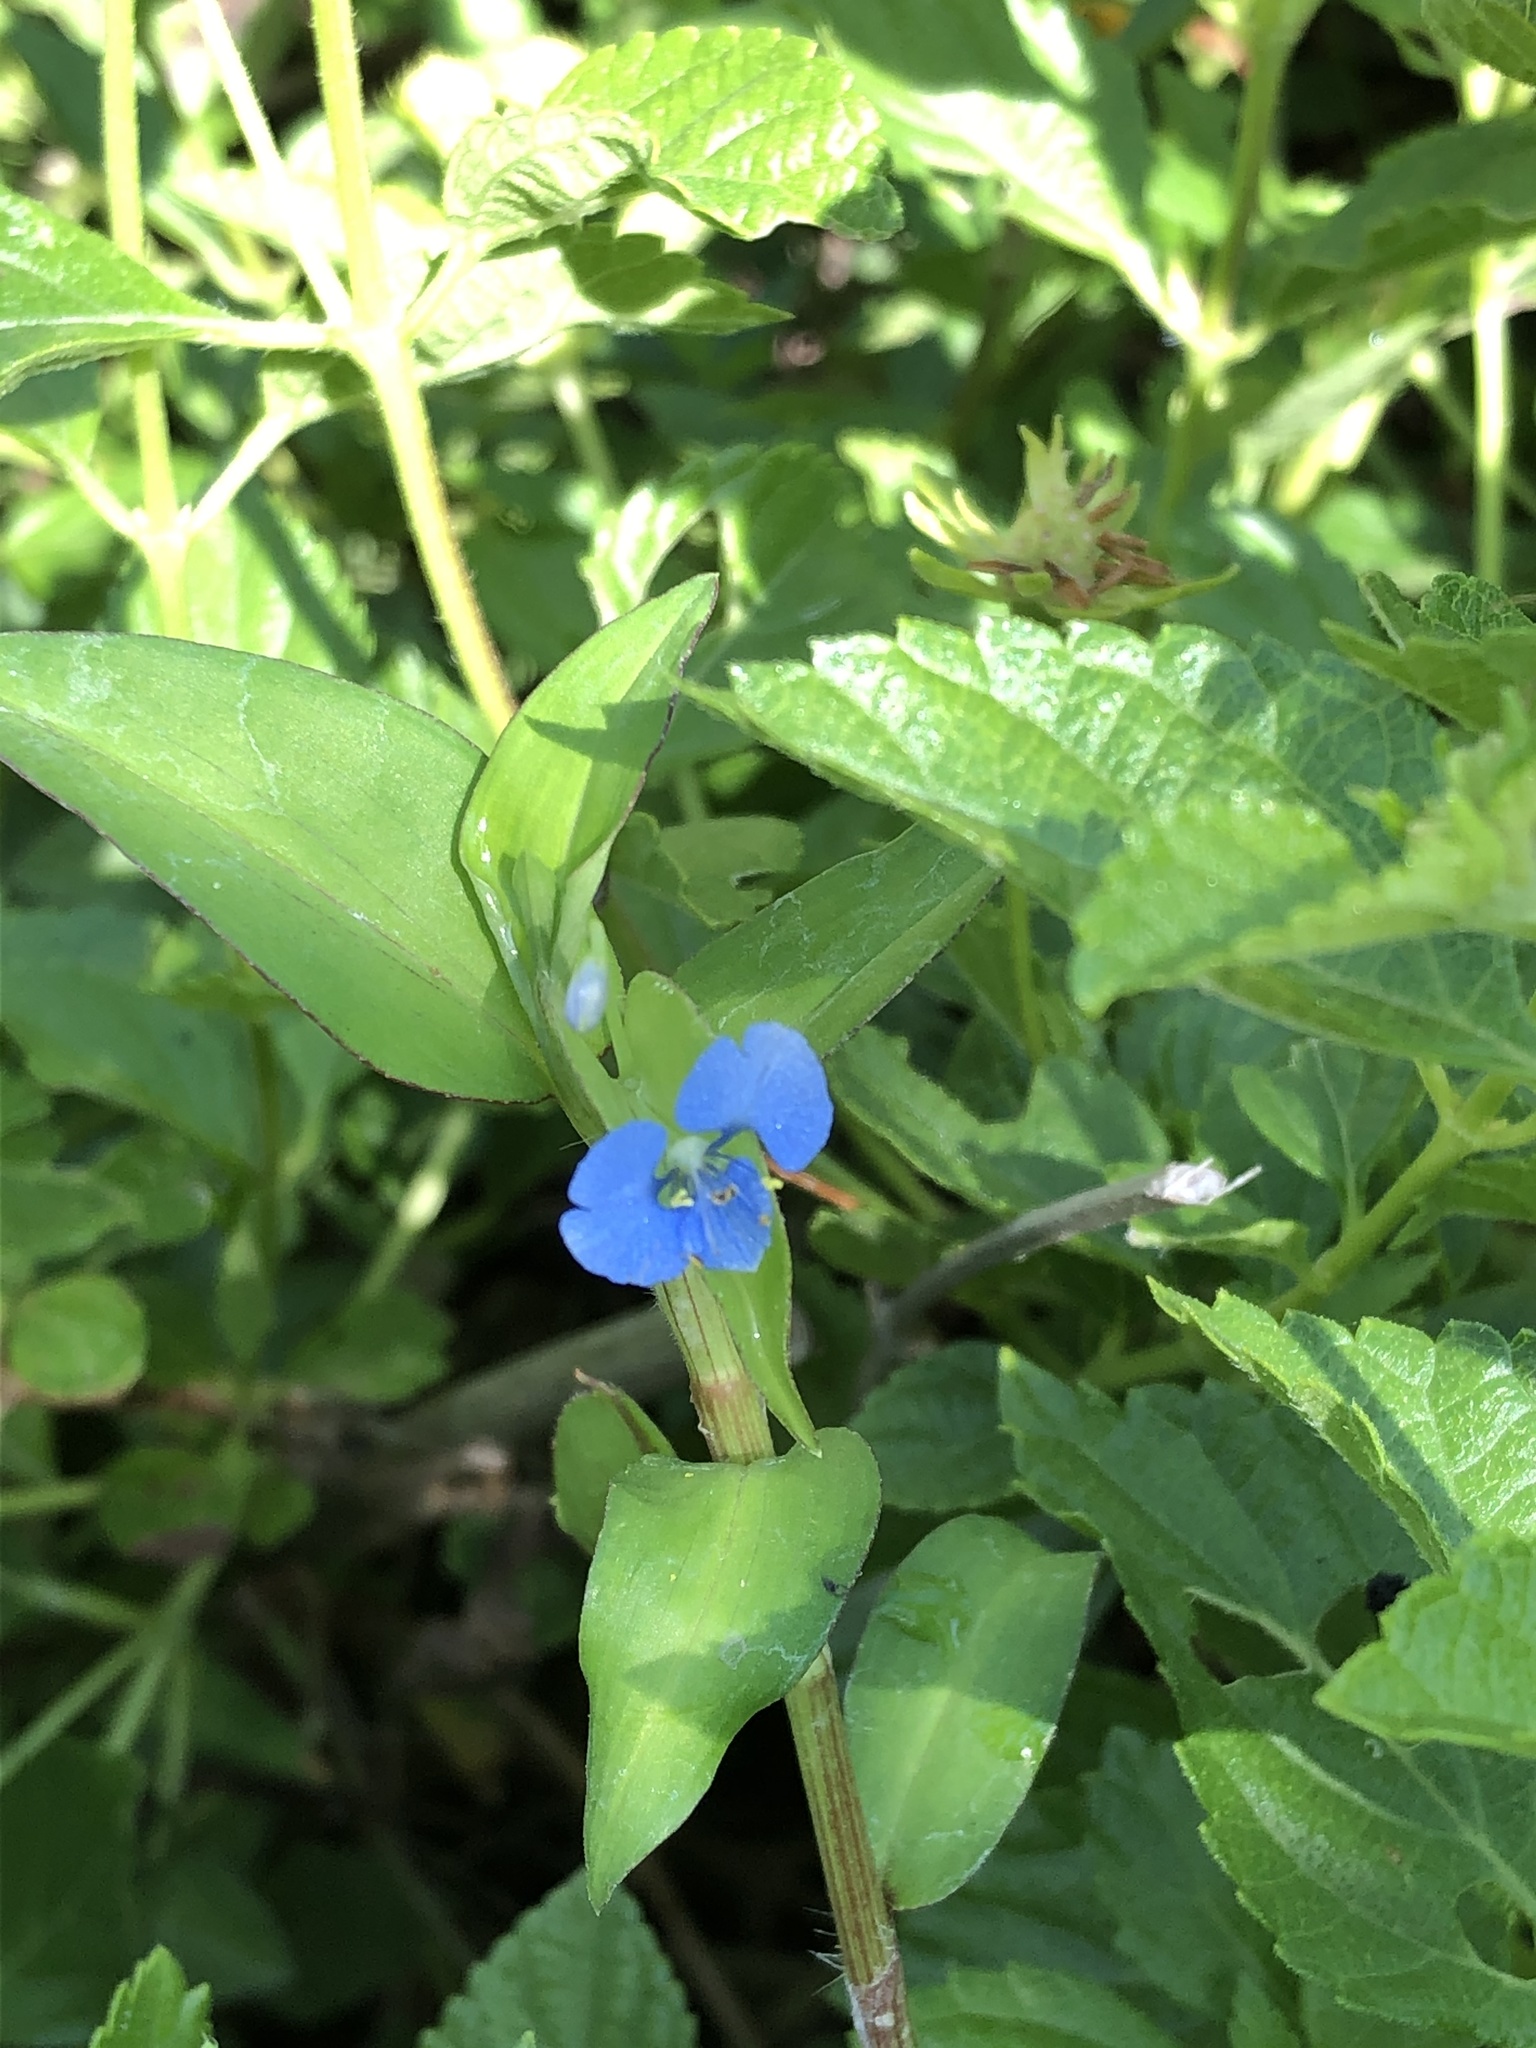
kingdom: Plantae
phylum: Tracheophyta
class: Liliopsida
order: Commelinales
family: Commelinaceae
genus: Commelina
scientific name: Commelina diffusa
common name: Climbing dayflower
